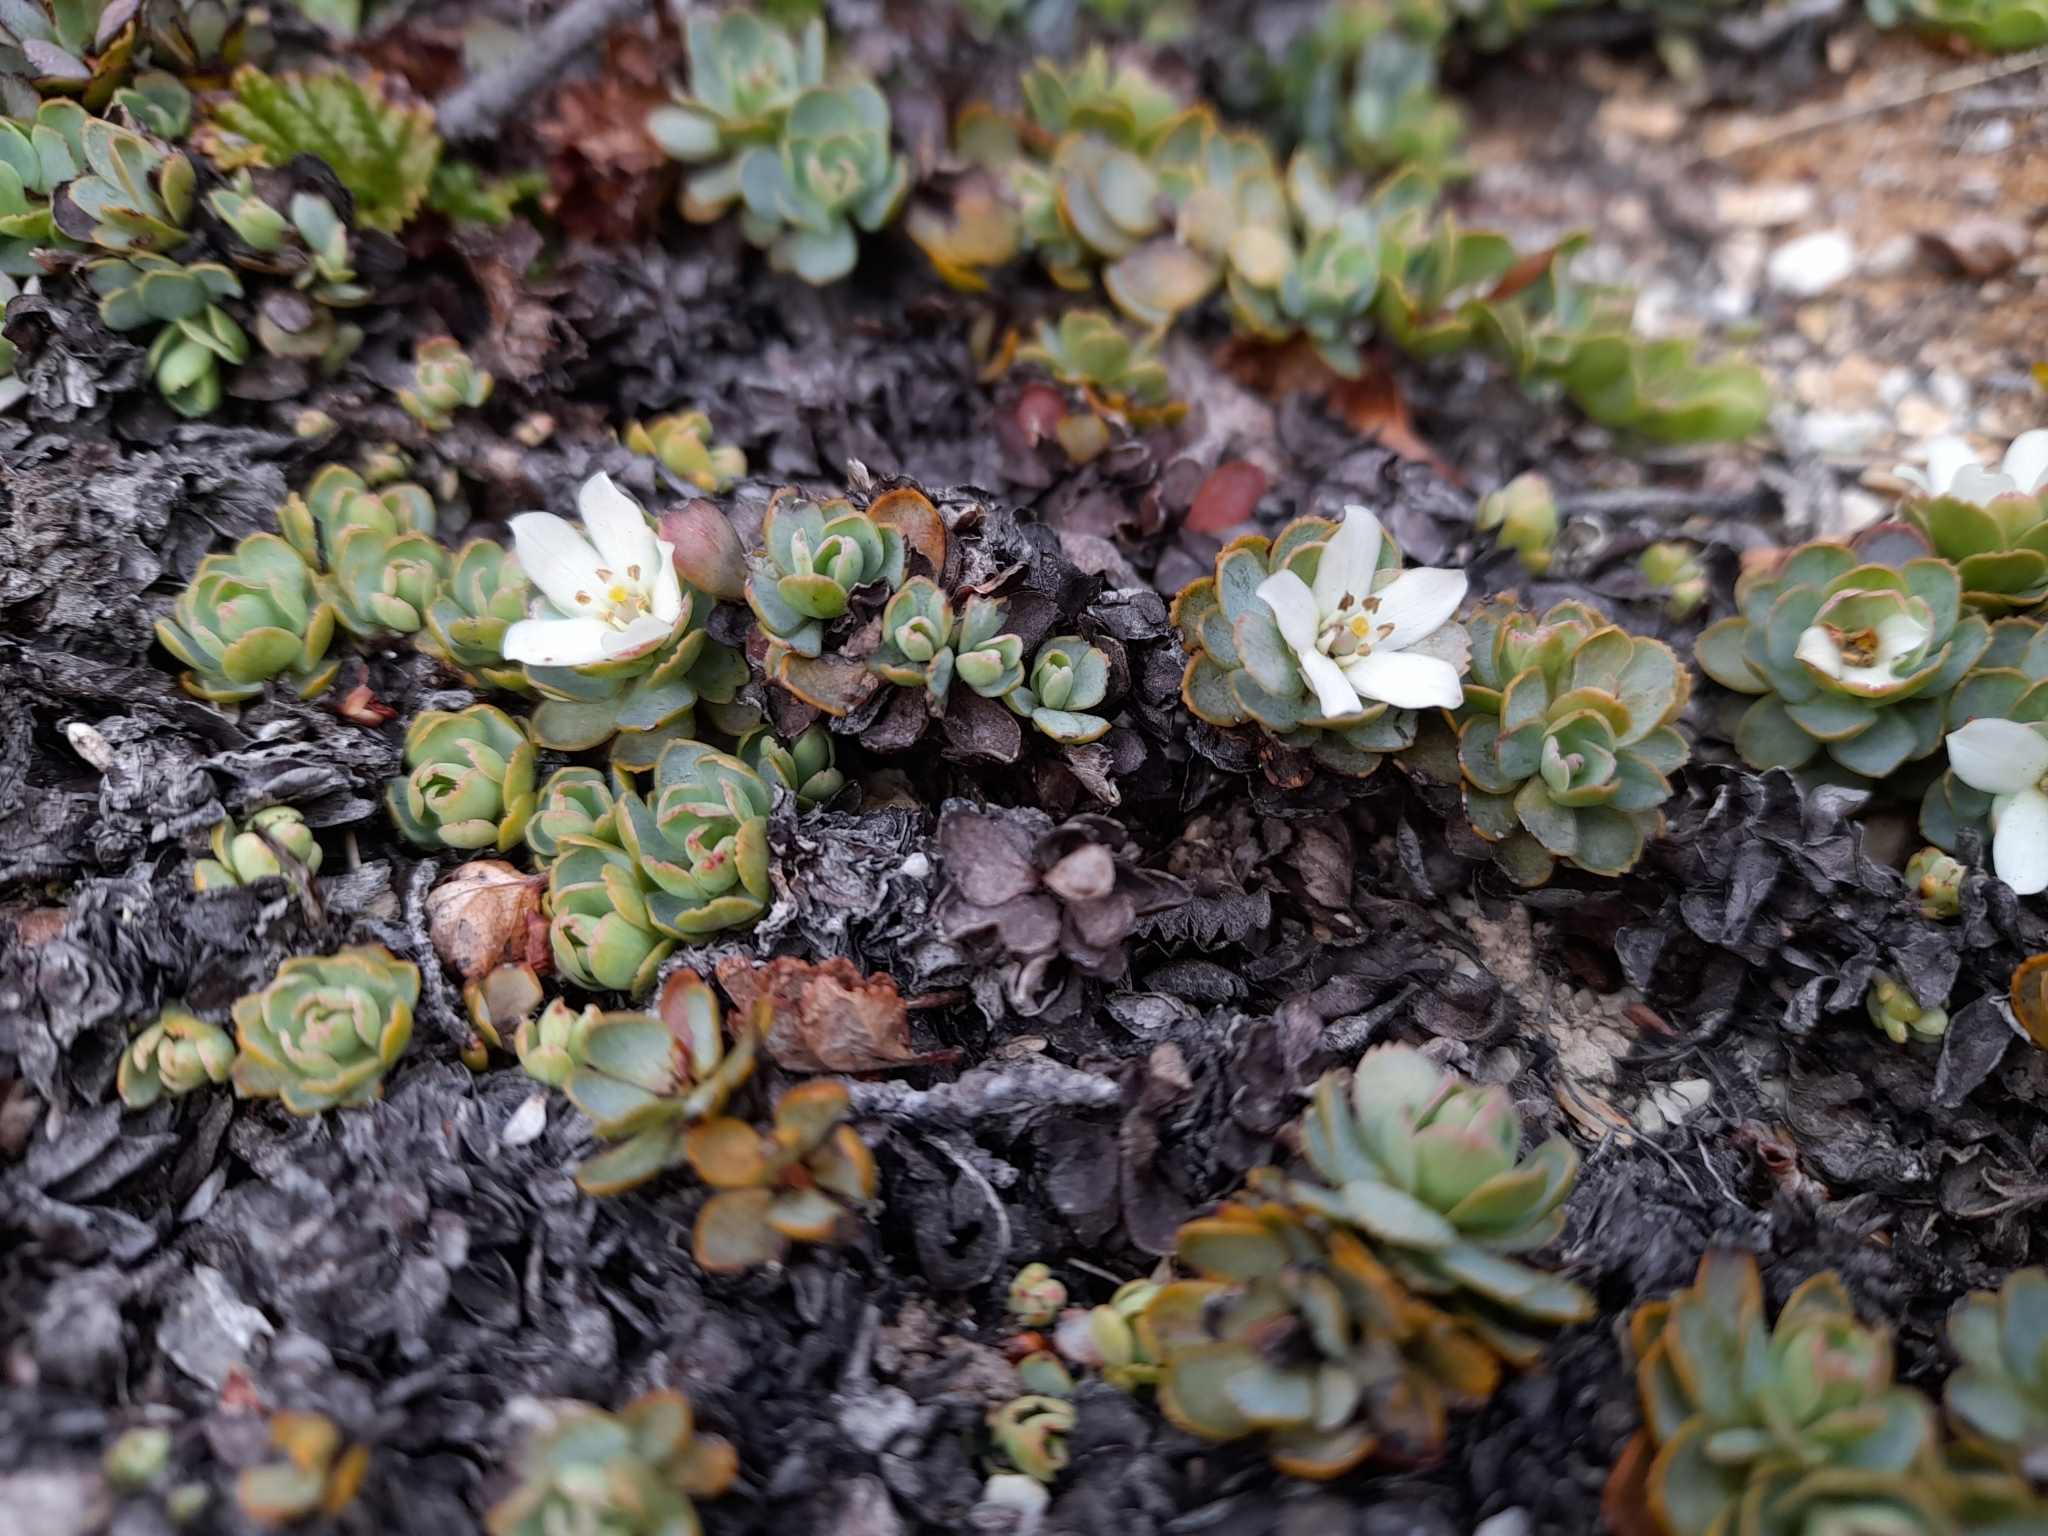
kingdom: Plantae
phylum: Tracheophyta
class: Magnoliopsida
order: Escalloniales
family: Escalloniaceae
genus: Tribeles
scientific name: Tribeles australis
